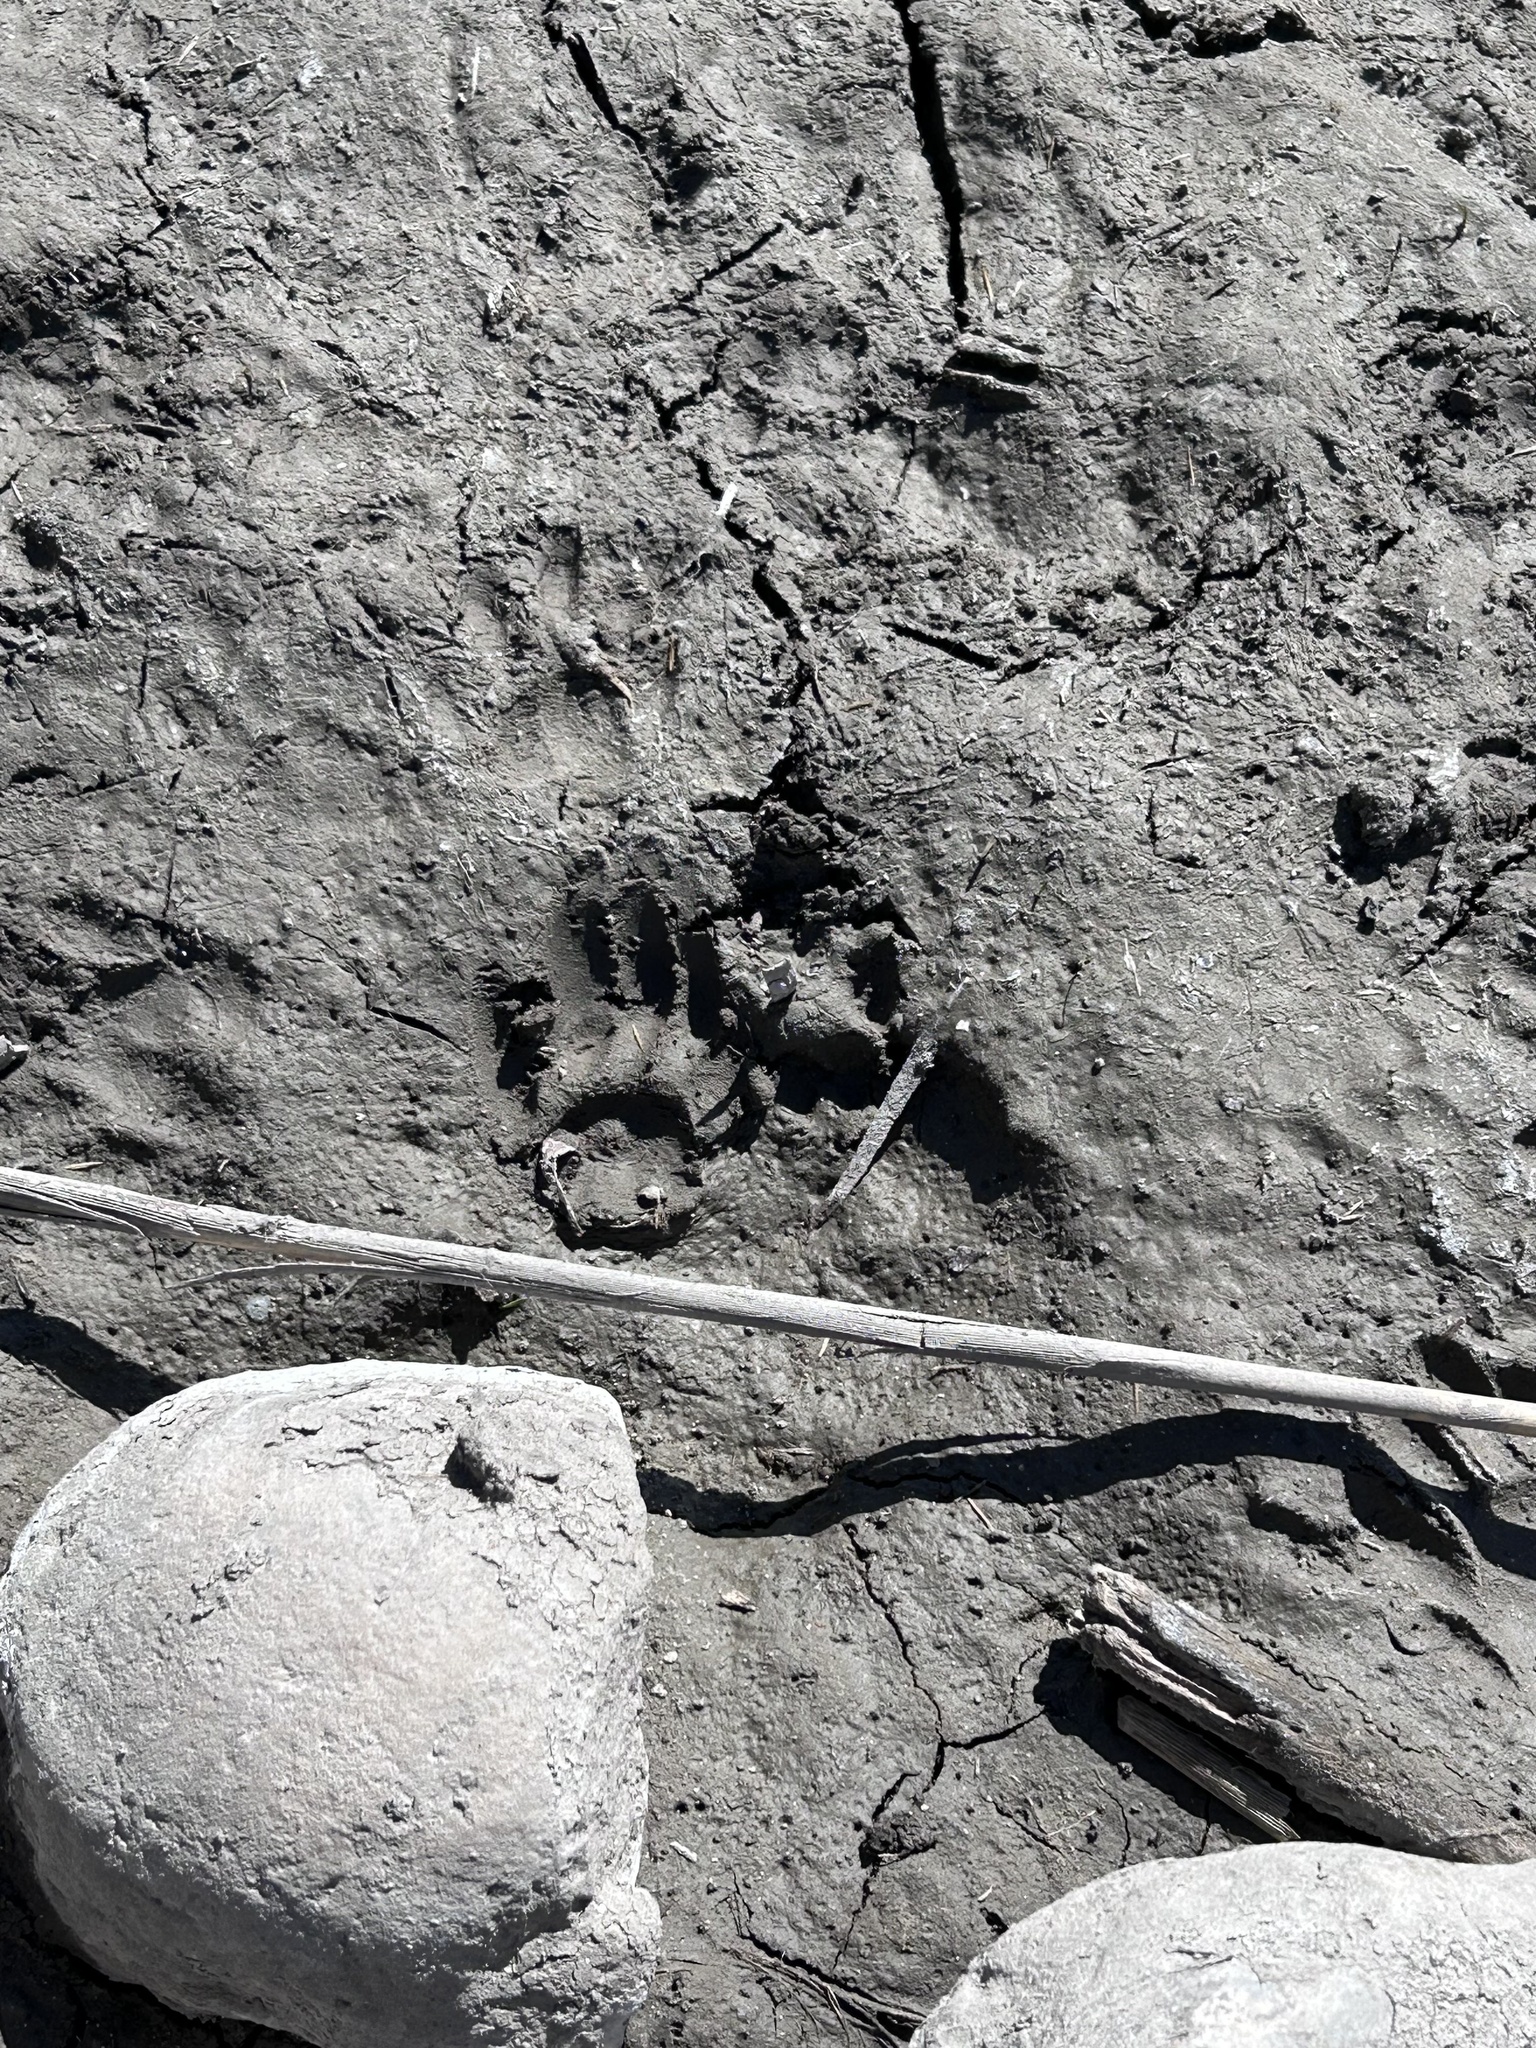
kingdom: Animalia
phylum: Chordata
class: Mammalia
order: Carnivora
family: Procyonidae
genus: Procyon
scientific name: Procyon lotor
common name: Raccoon
